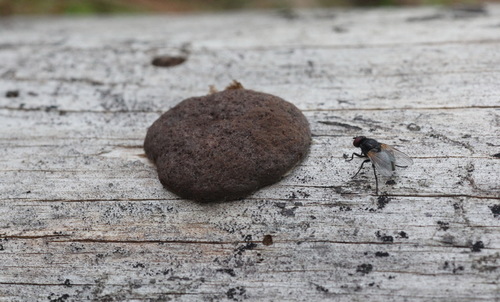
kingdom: Protozoa
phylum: Mycetozoa
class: Myxomycetes
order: Cribrariales
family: Tubiferaceae
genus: Reticularia
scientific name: Reticularia intermedia
